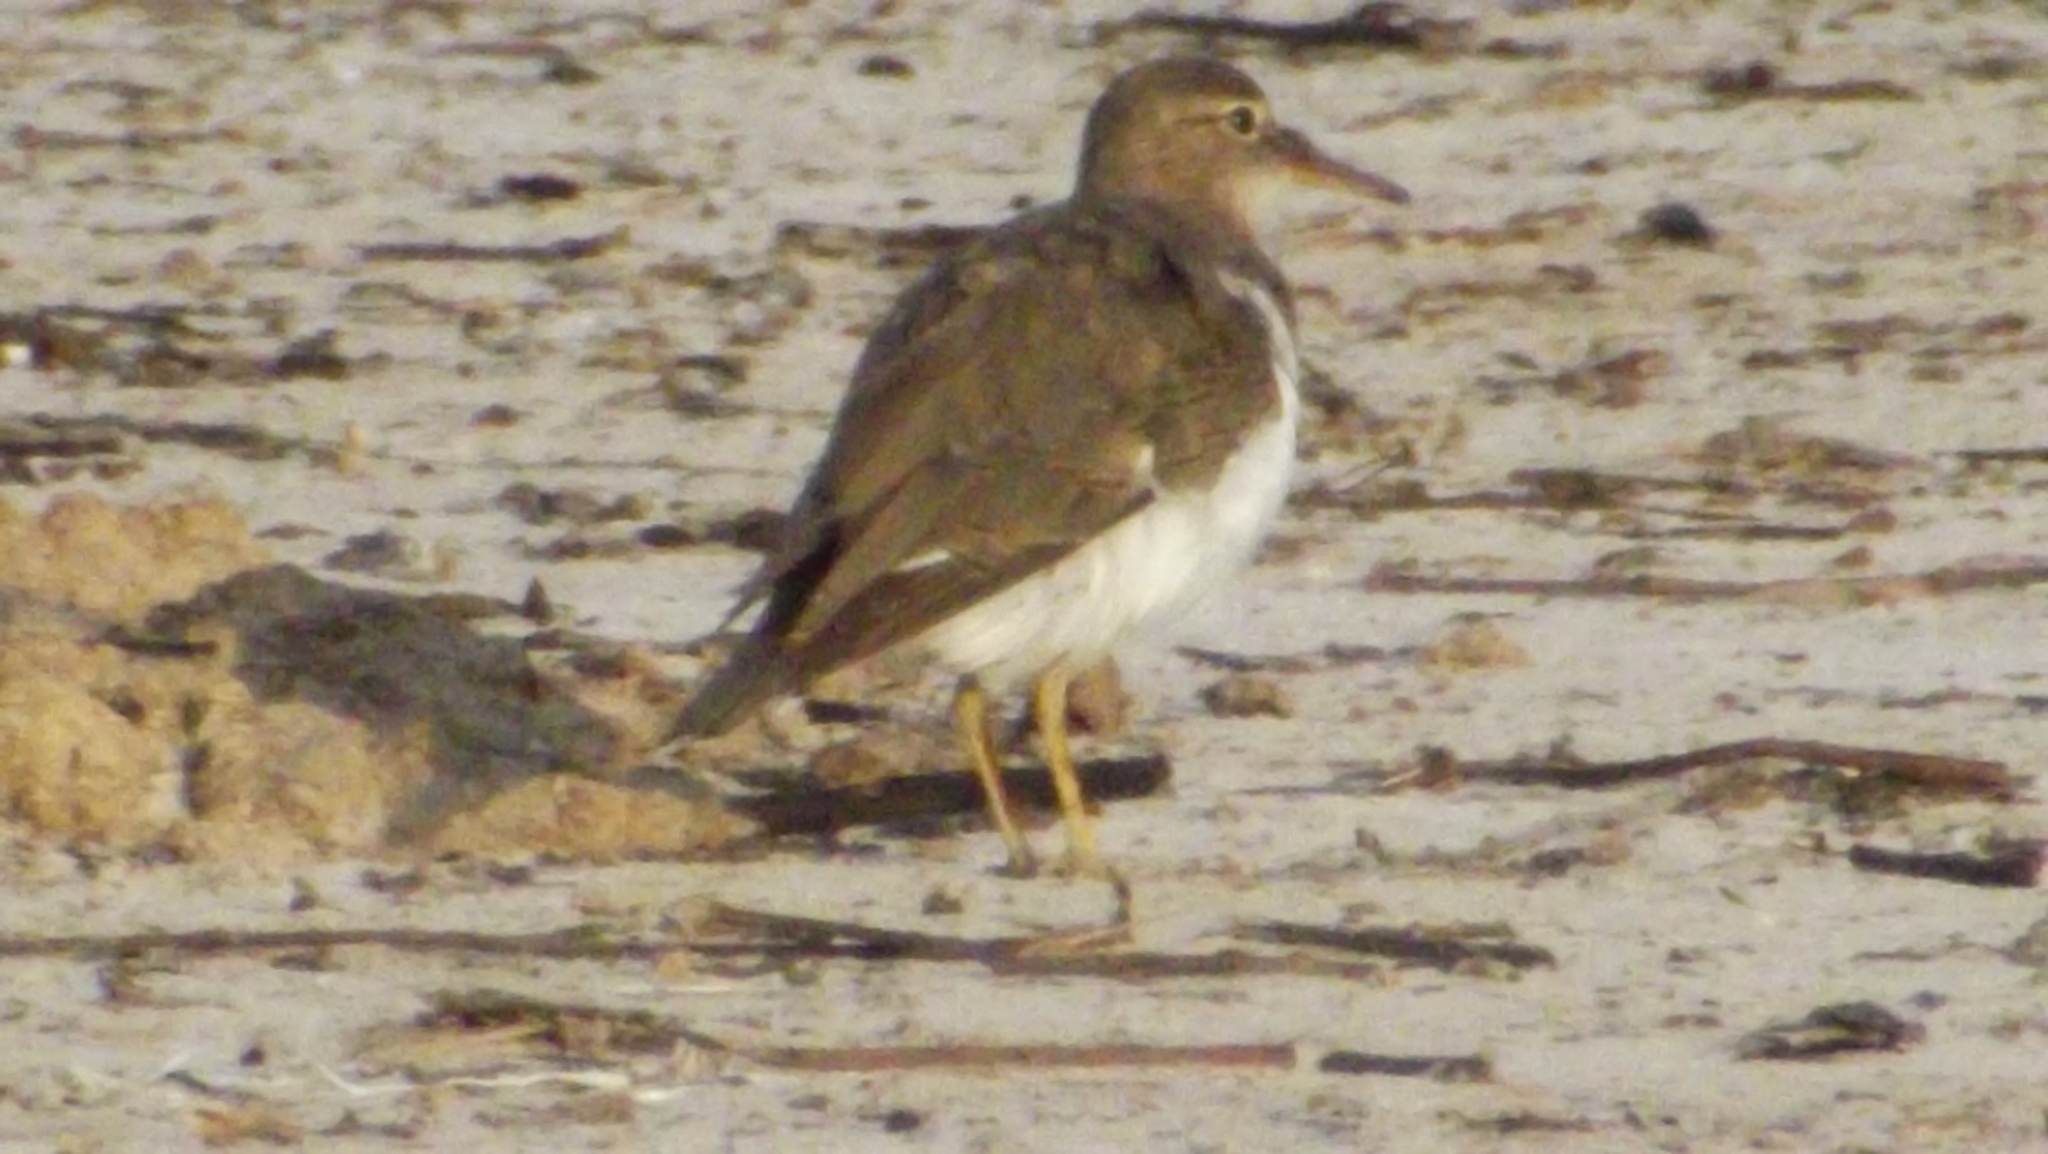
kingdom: Animalia
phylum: Chordata
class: Aves
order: Charadriiformes
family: Scolopacidae
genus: Actitis
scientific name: Actitis macularius
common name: Spotted sandpiper
